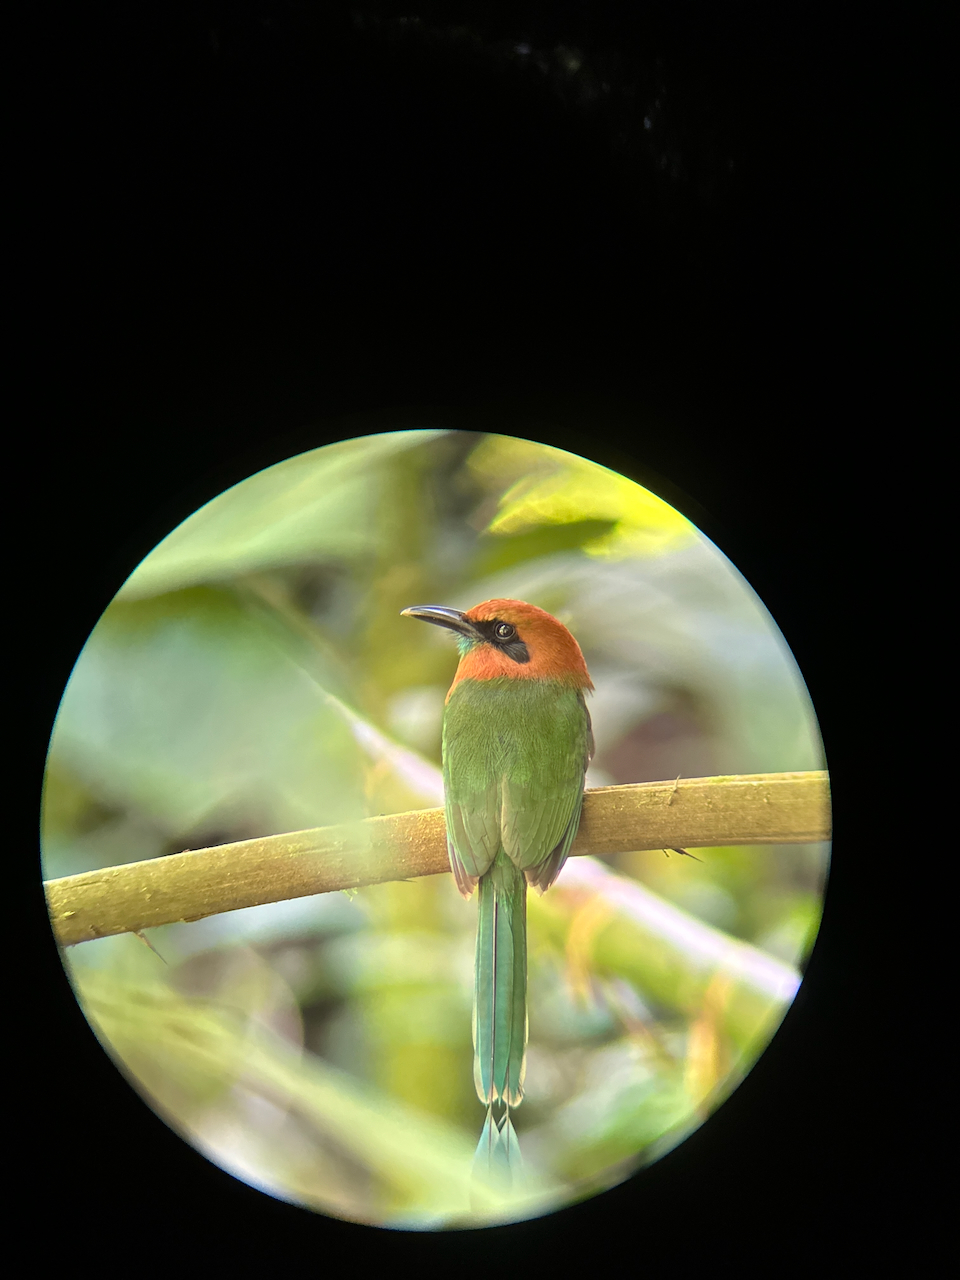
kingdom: Animalia
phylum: Chordata
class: Aves
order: Coraciiformes
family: Momotidae
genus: Electron
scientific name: Electron platyrhynchum
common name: Broad-billed motmot
